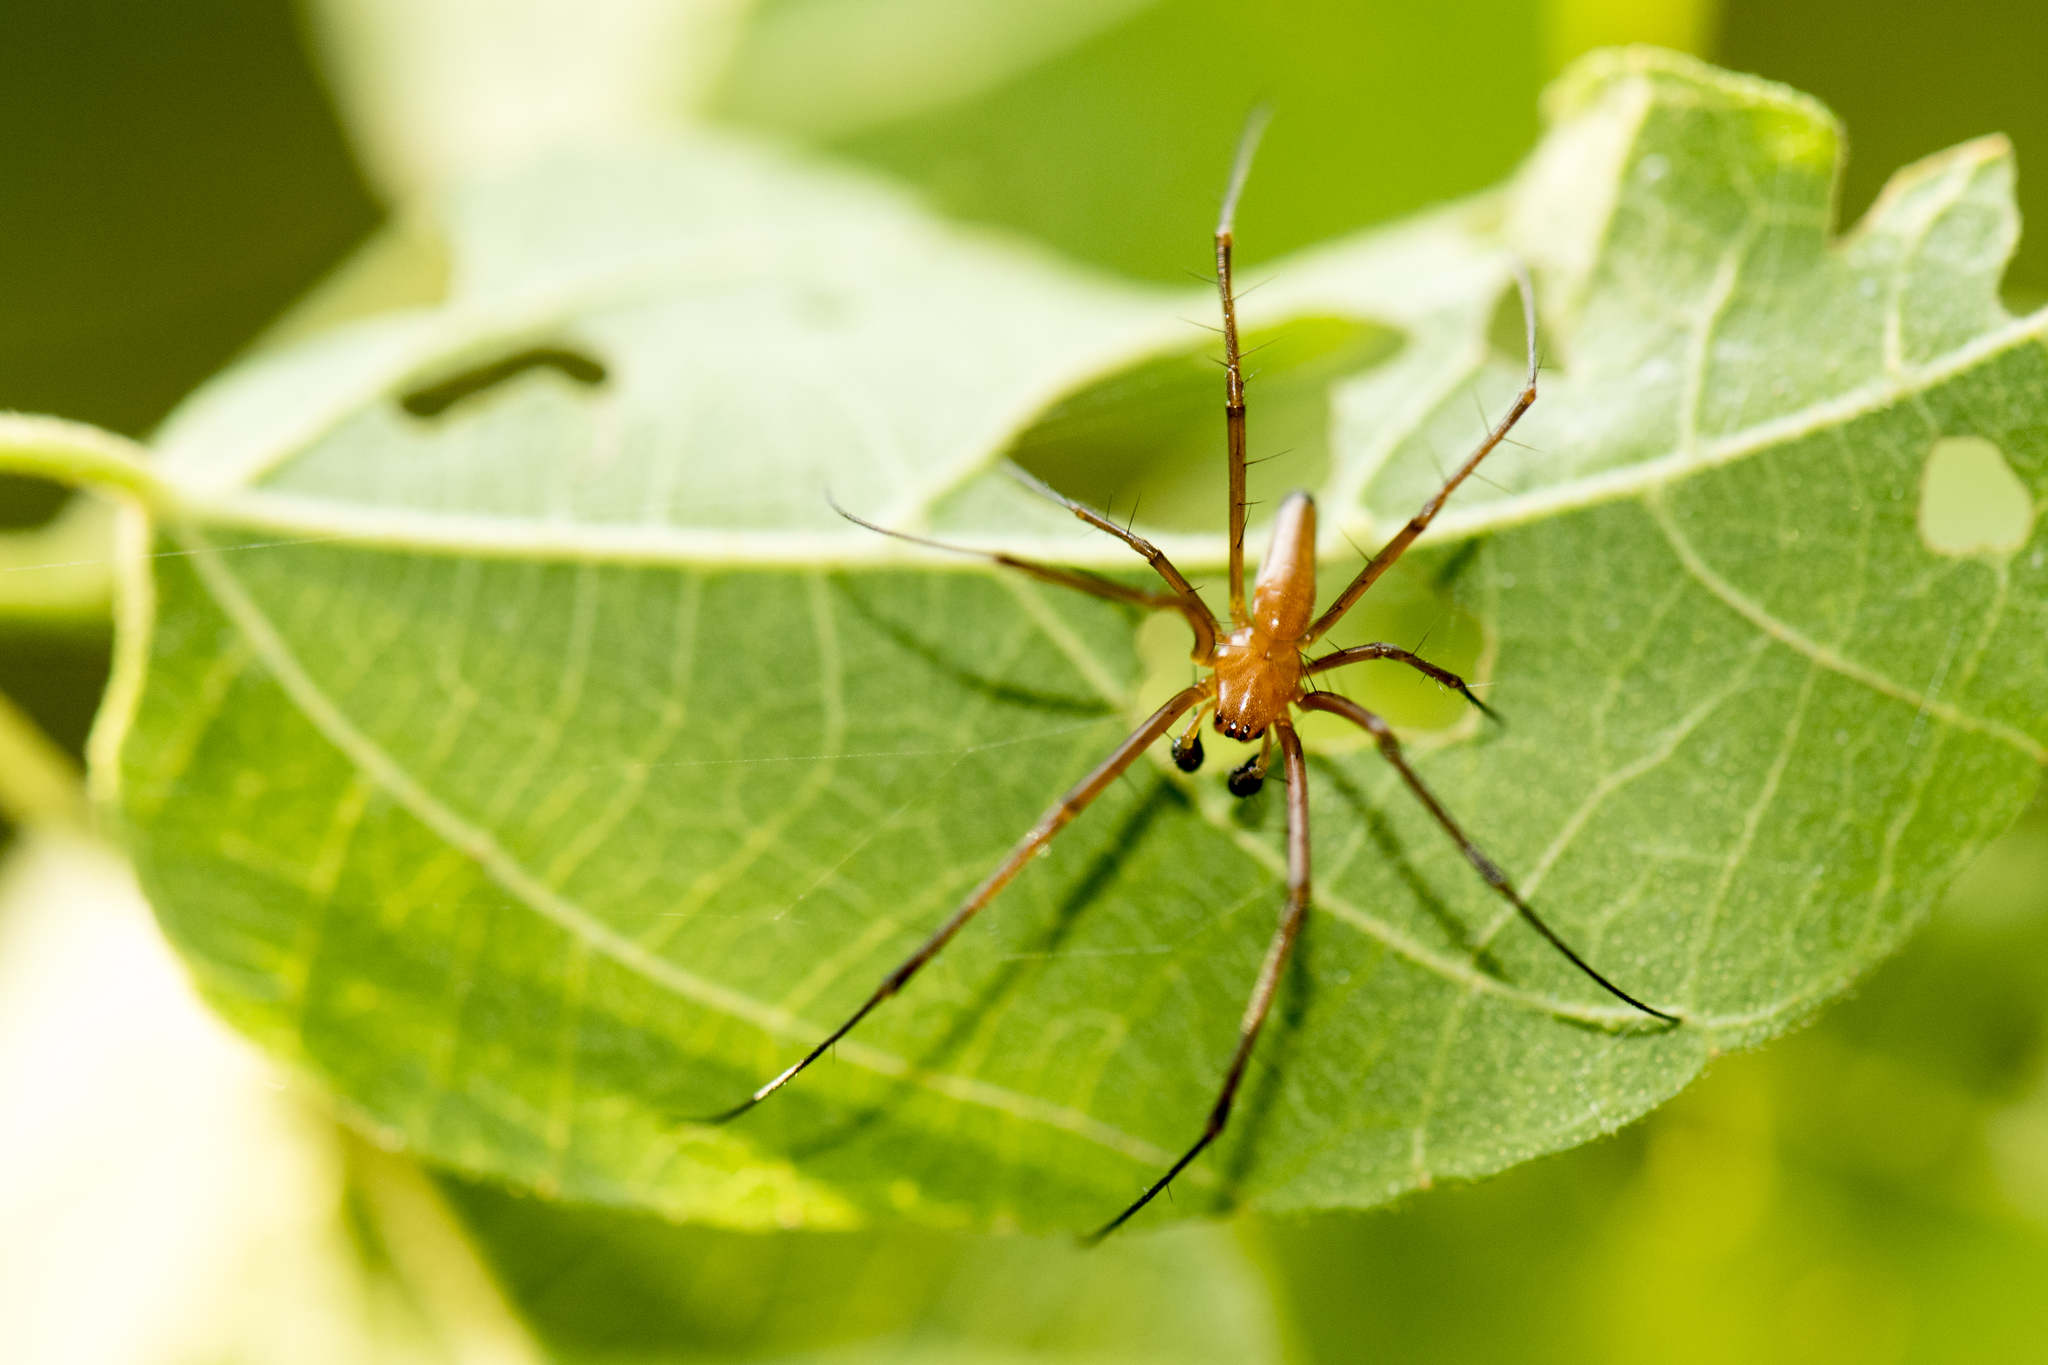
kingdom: Animalia
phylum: Arthropoda
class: Arachnida
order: Araneae
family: Araneidae
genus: Nephila
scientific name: Nephila pilipes
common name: Giant golden orb weaver
